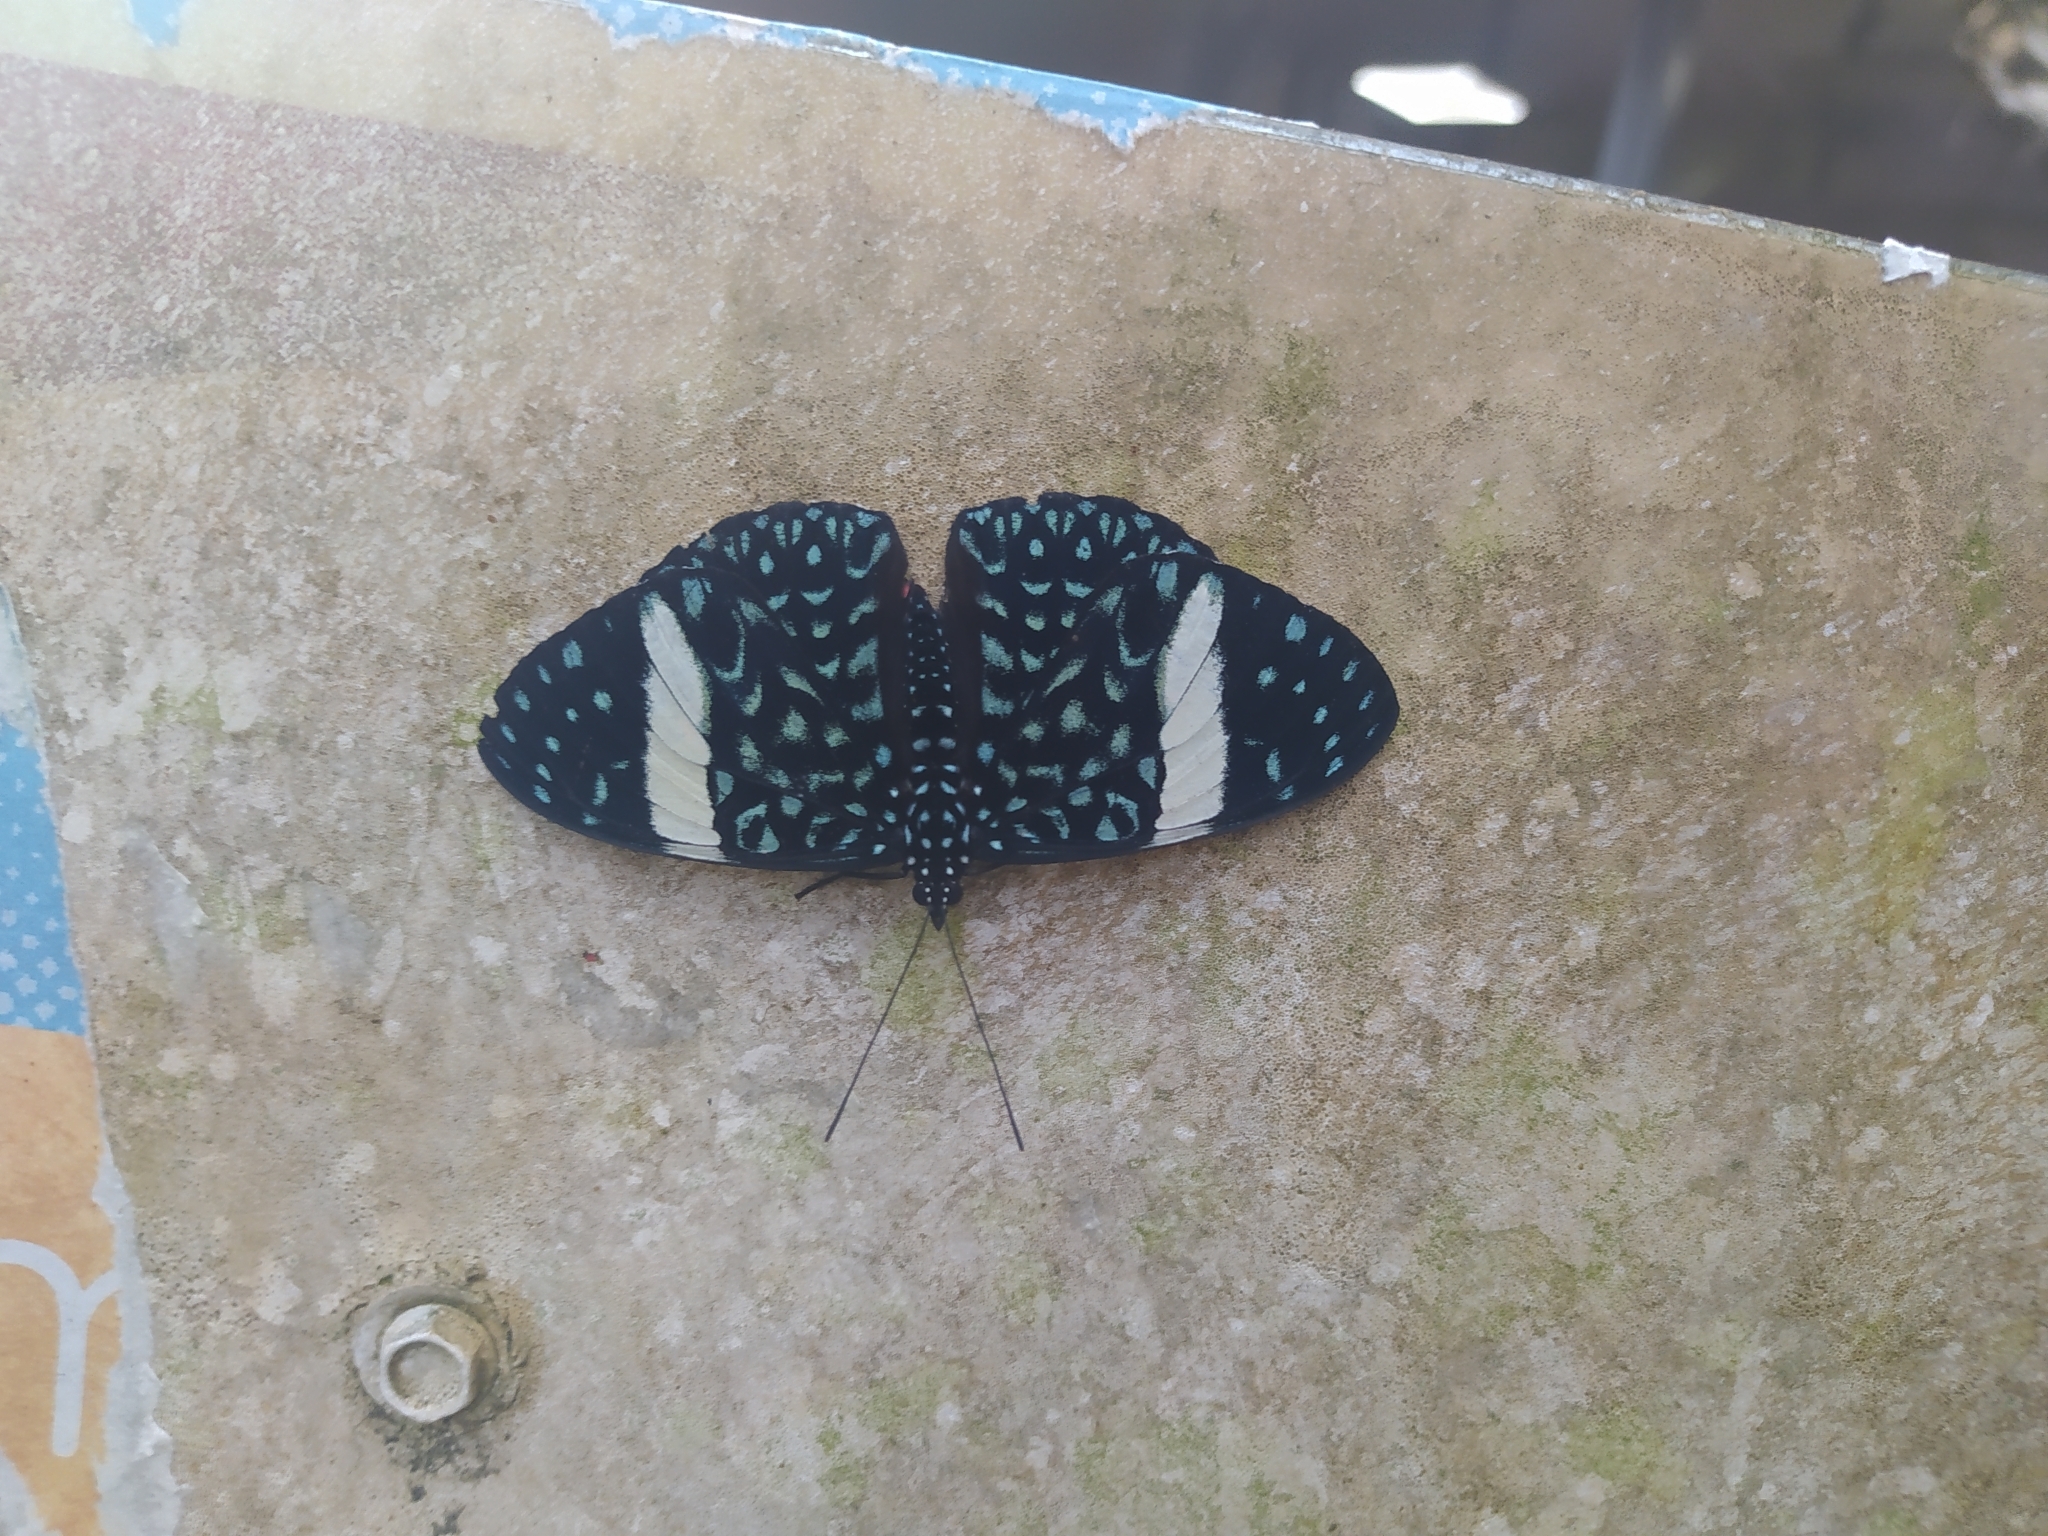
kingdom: Animalia
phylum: Arthropoda
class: Insecta
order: Lepidoptera
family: Nymphalidae
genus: Hamadryas
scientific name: Hamadryas laodamia
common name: Starry night cracker
